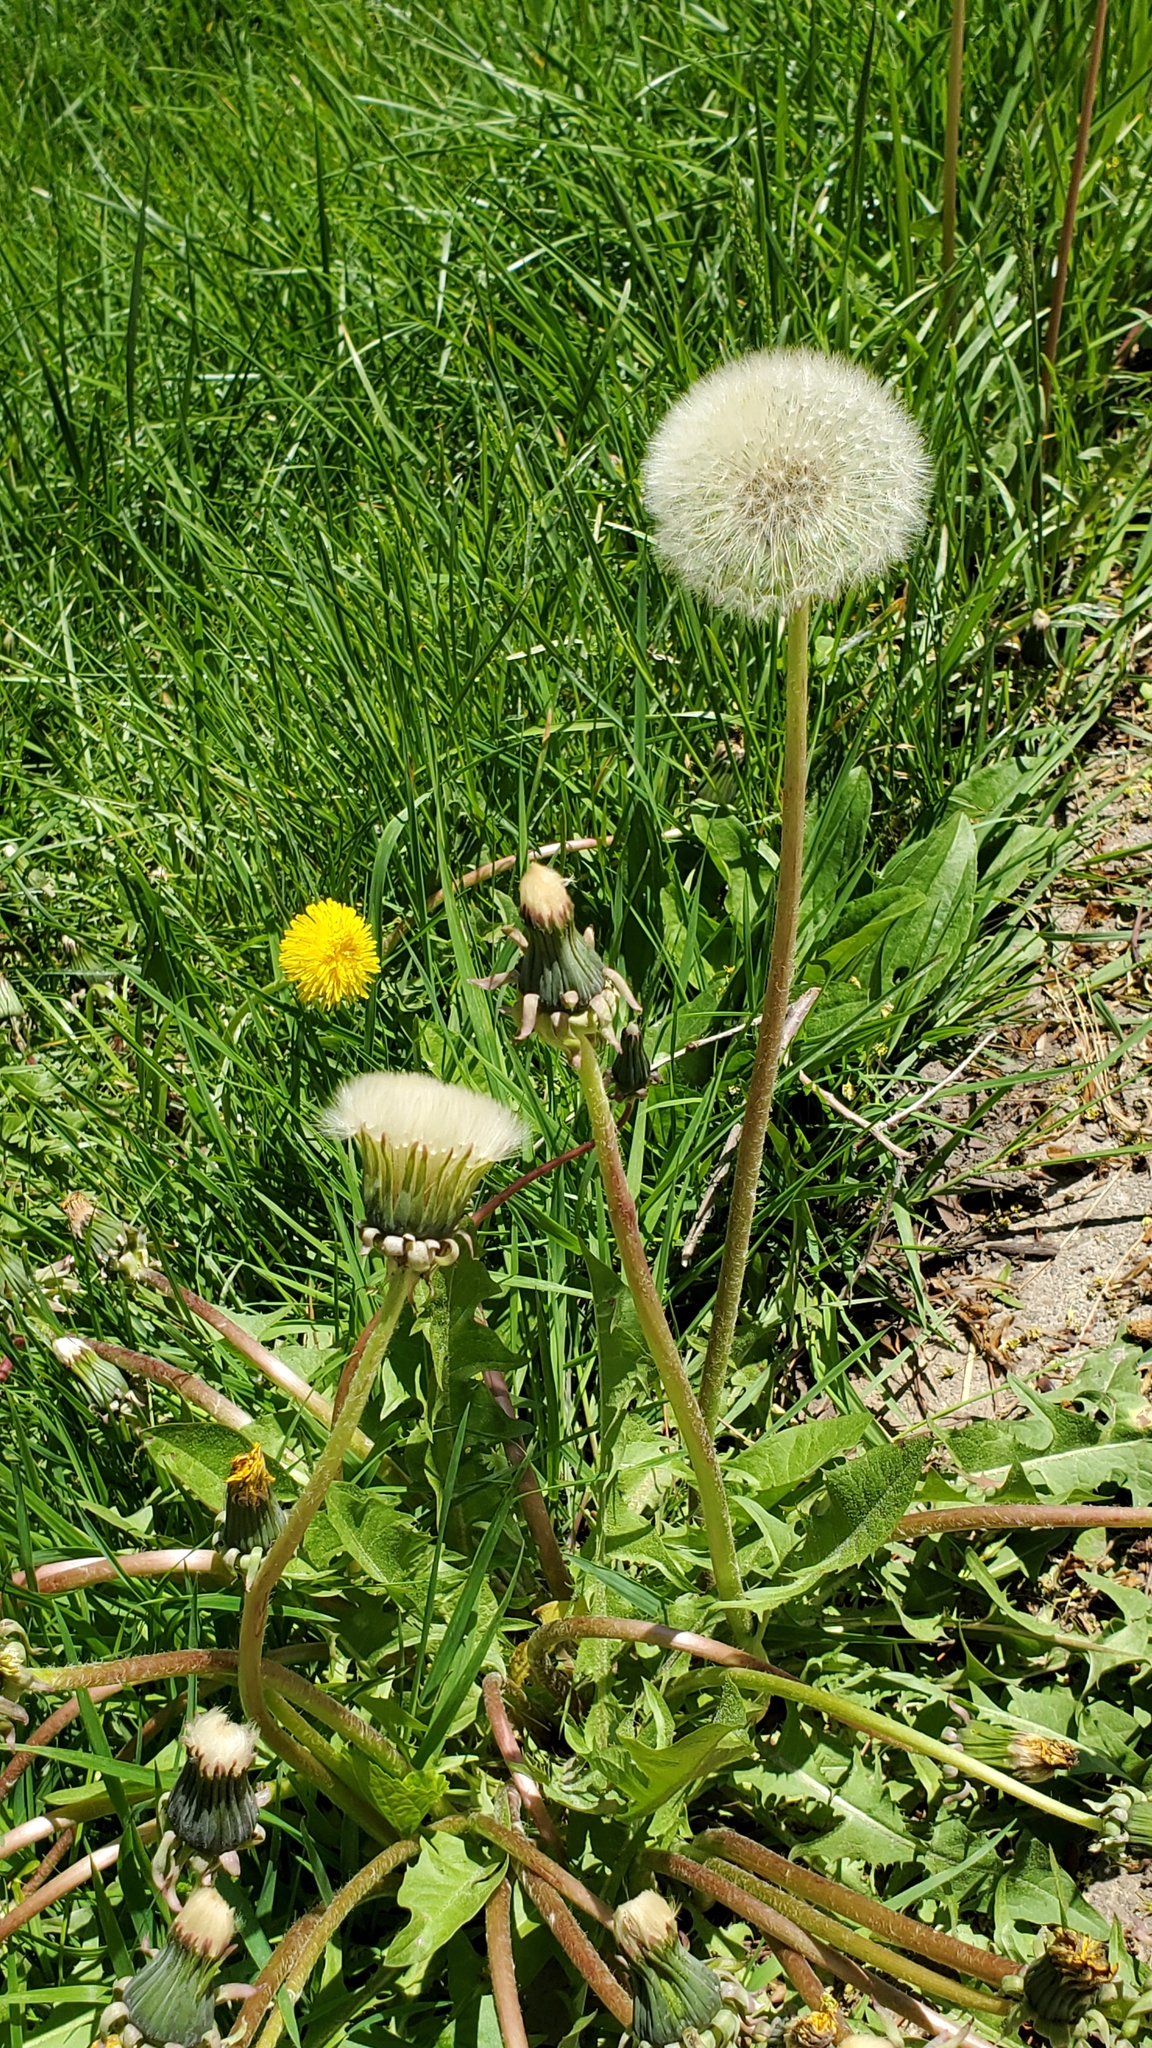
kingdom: Plantae
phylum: Tracheophyta
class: Magnoliopsida
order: Asterales
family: Asteraceae
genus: Taraxacum
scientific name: Taraxacum officinale
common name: Common dandelion
